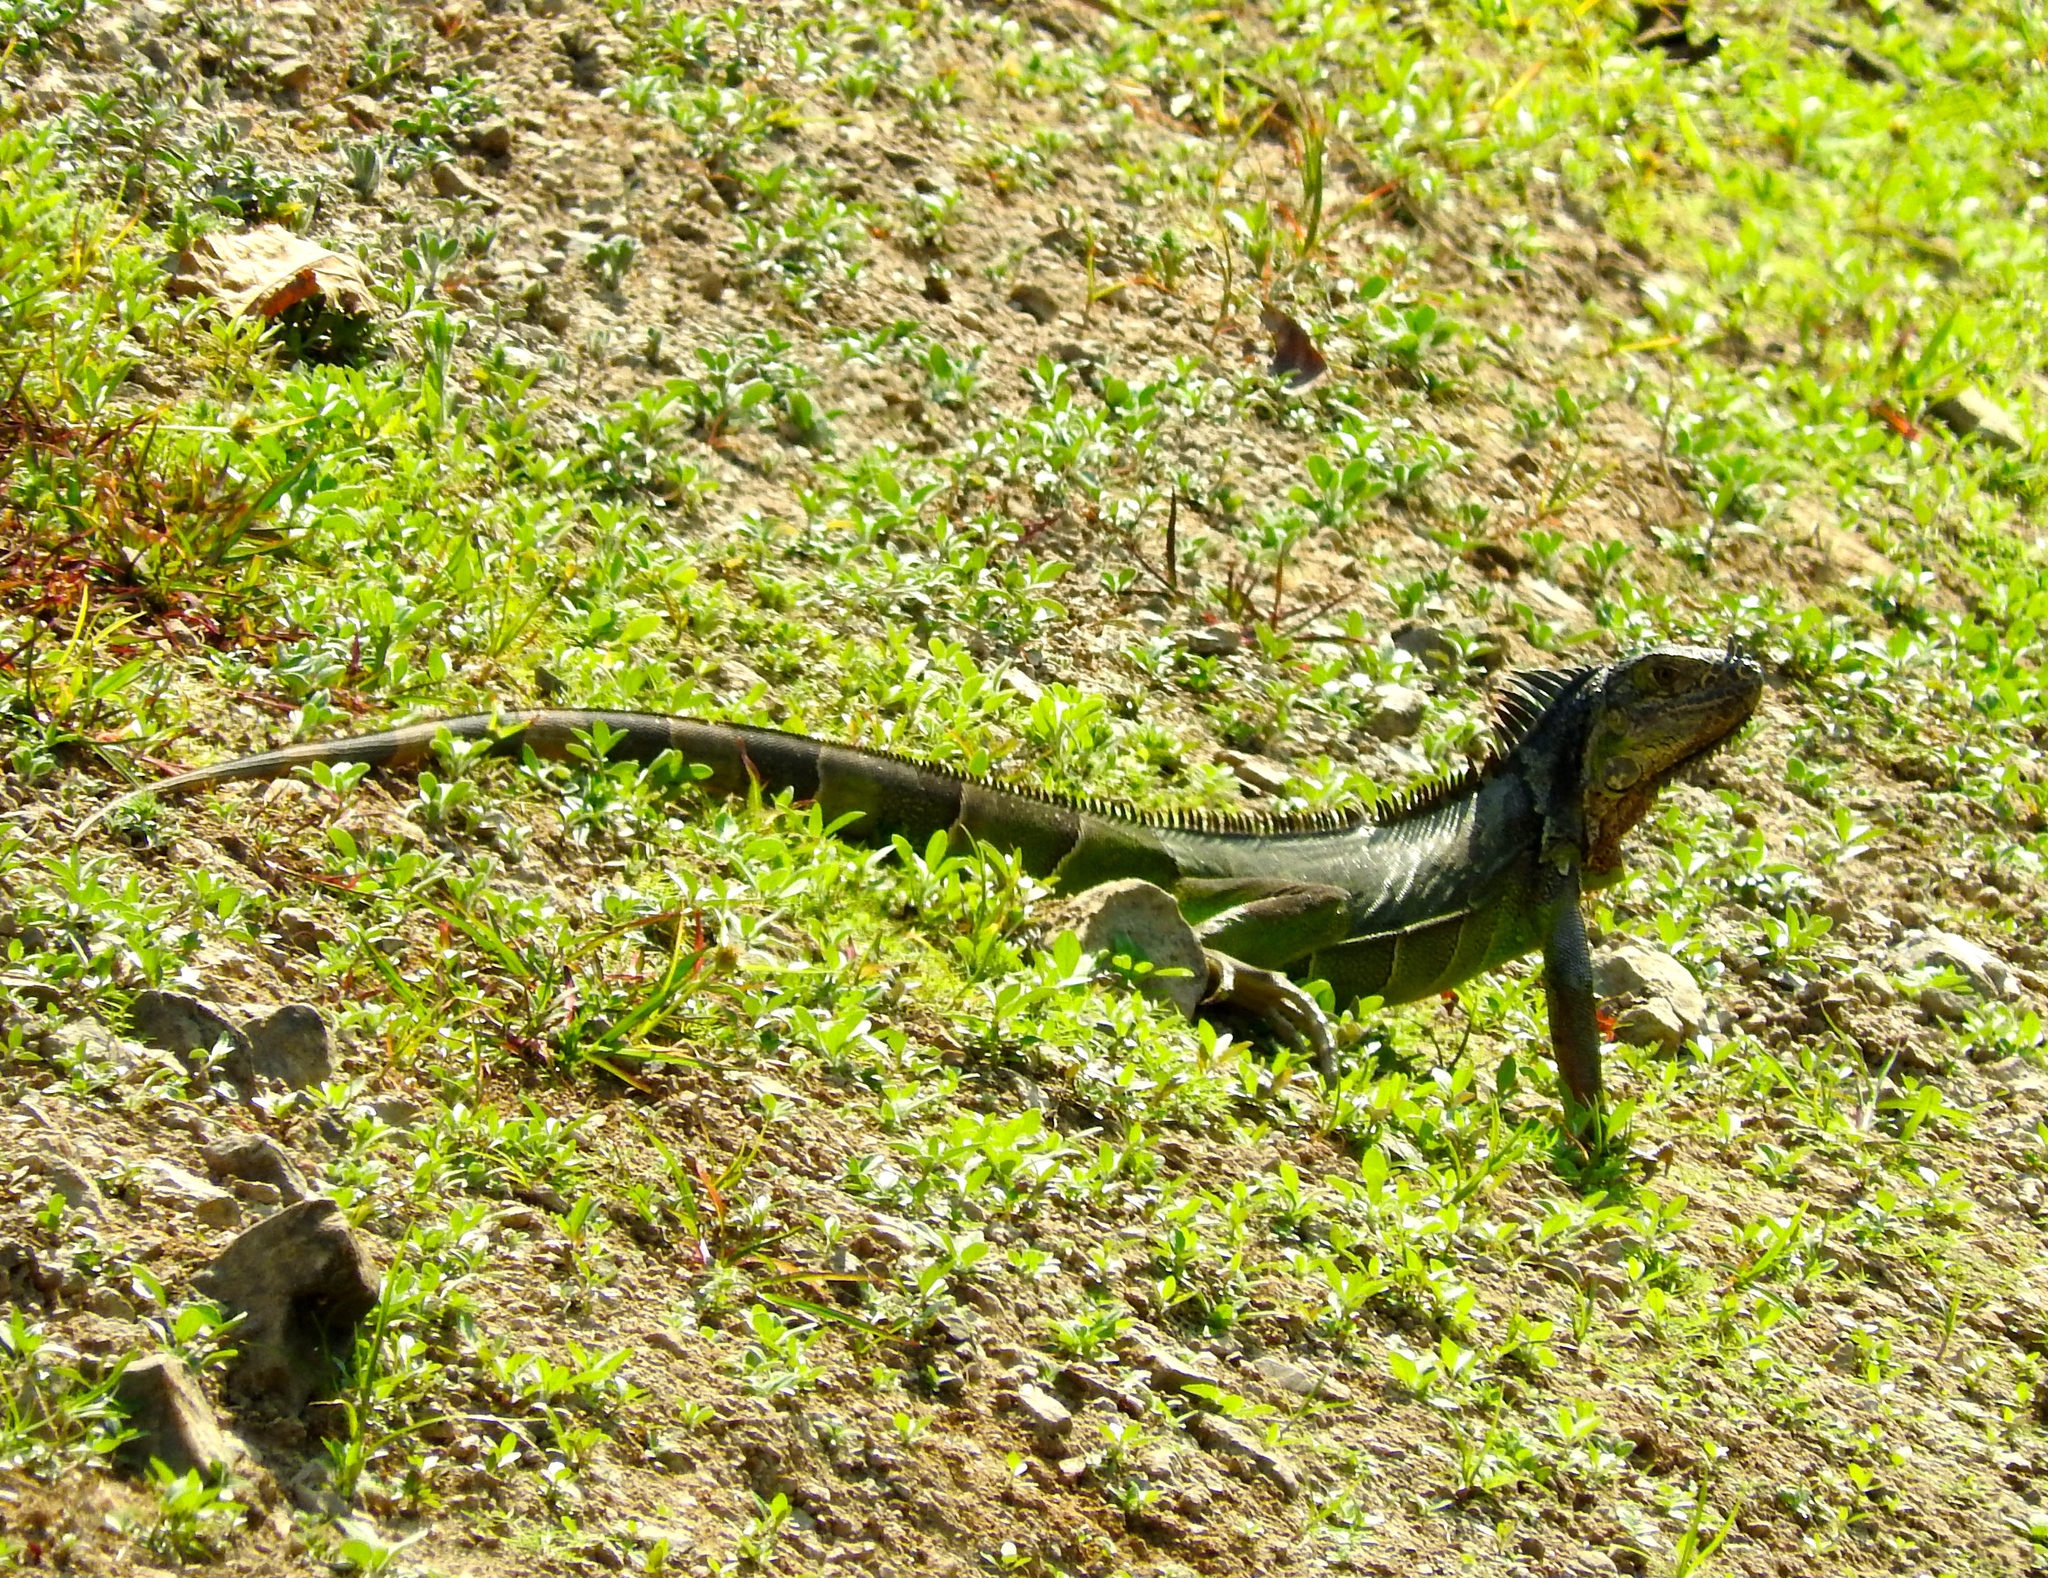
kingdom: Animalia
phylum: Chordata
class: Squamata
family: Iguanidae
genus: Iguana
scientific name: Iguana iguana
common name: Green iguana
